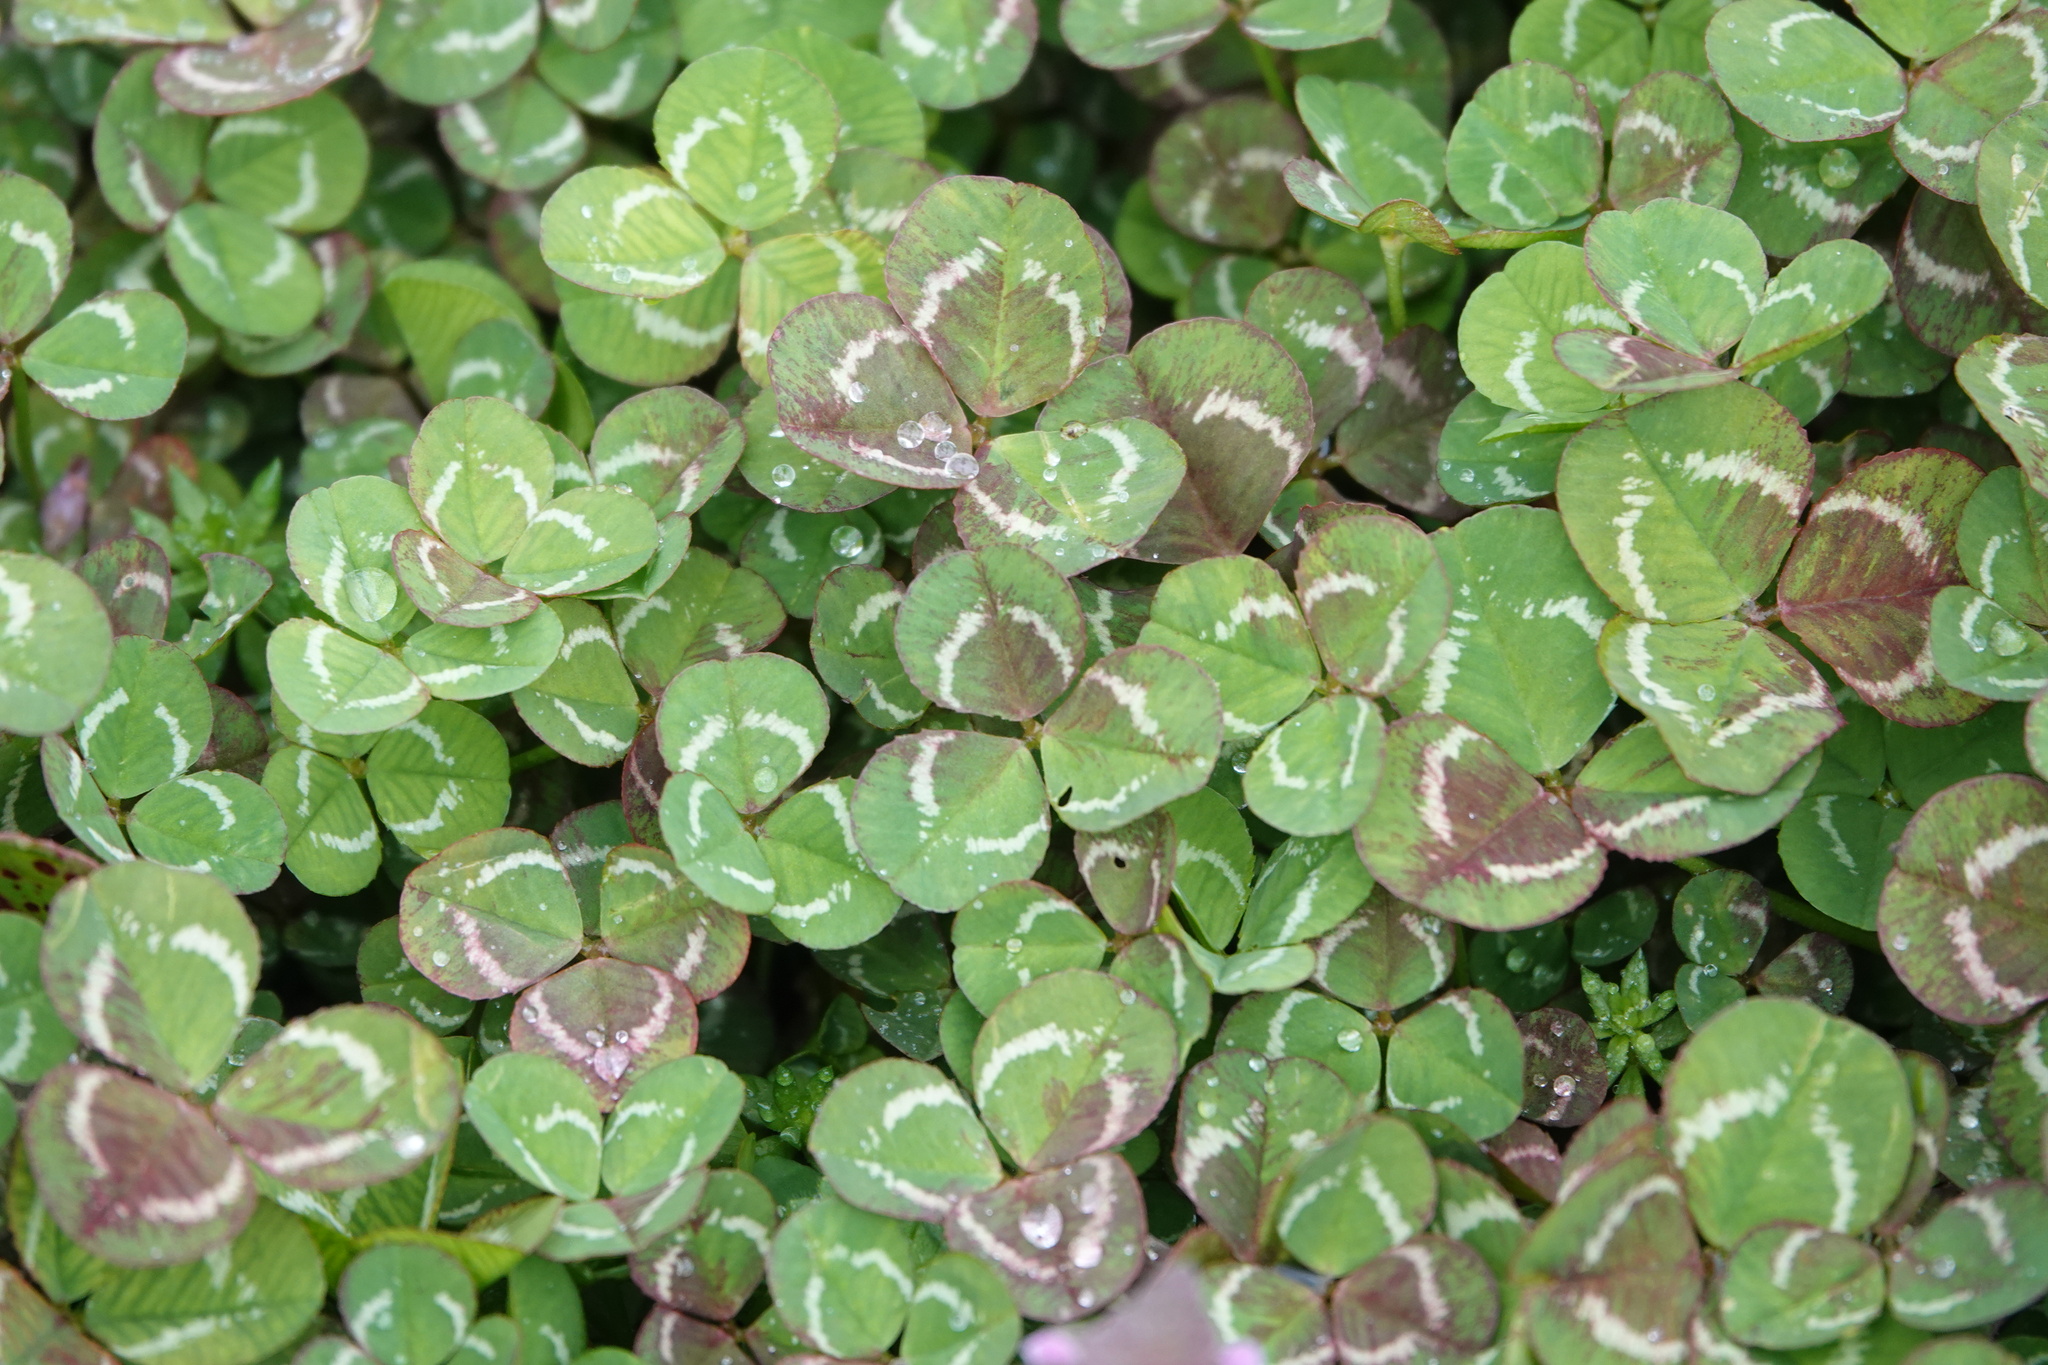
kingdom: Plantae
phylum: Tracheophyta
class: Magnoliopsida
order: Fabales
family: Fabaceae
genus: Trifolium
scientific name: Trifolium repens
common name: White clover
